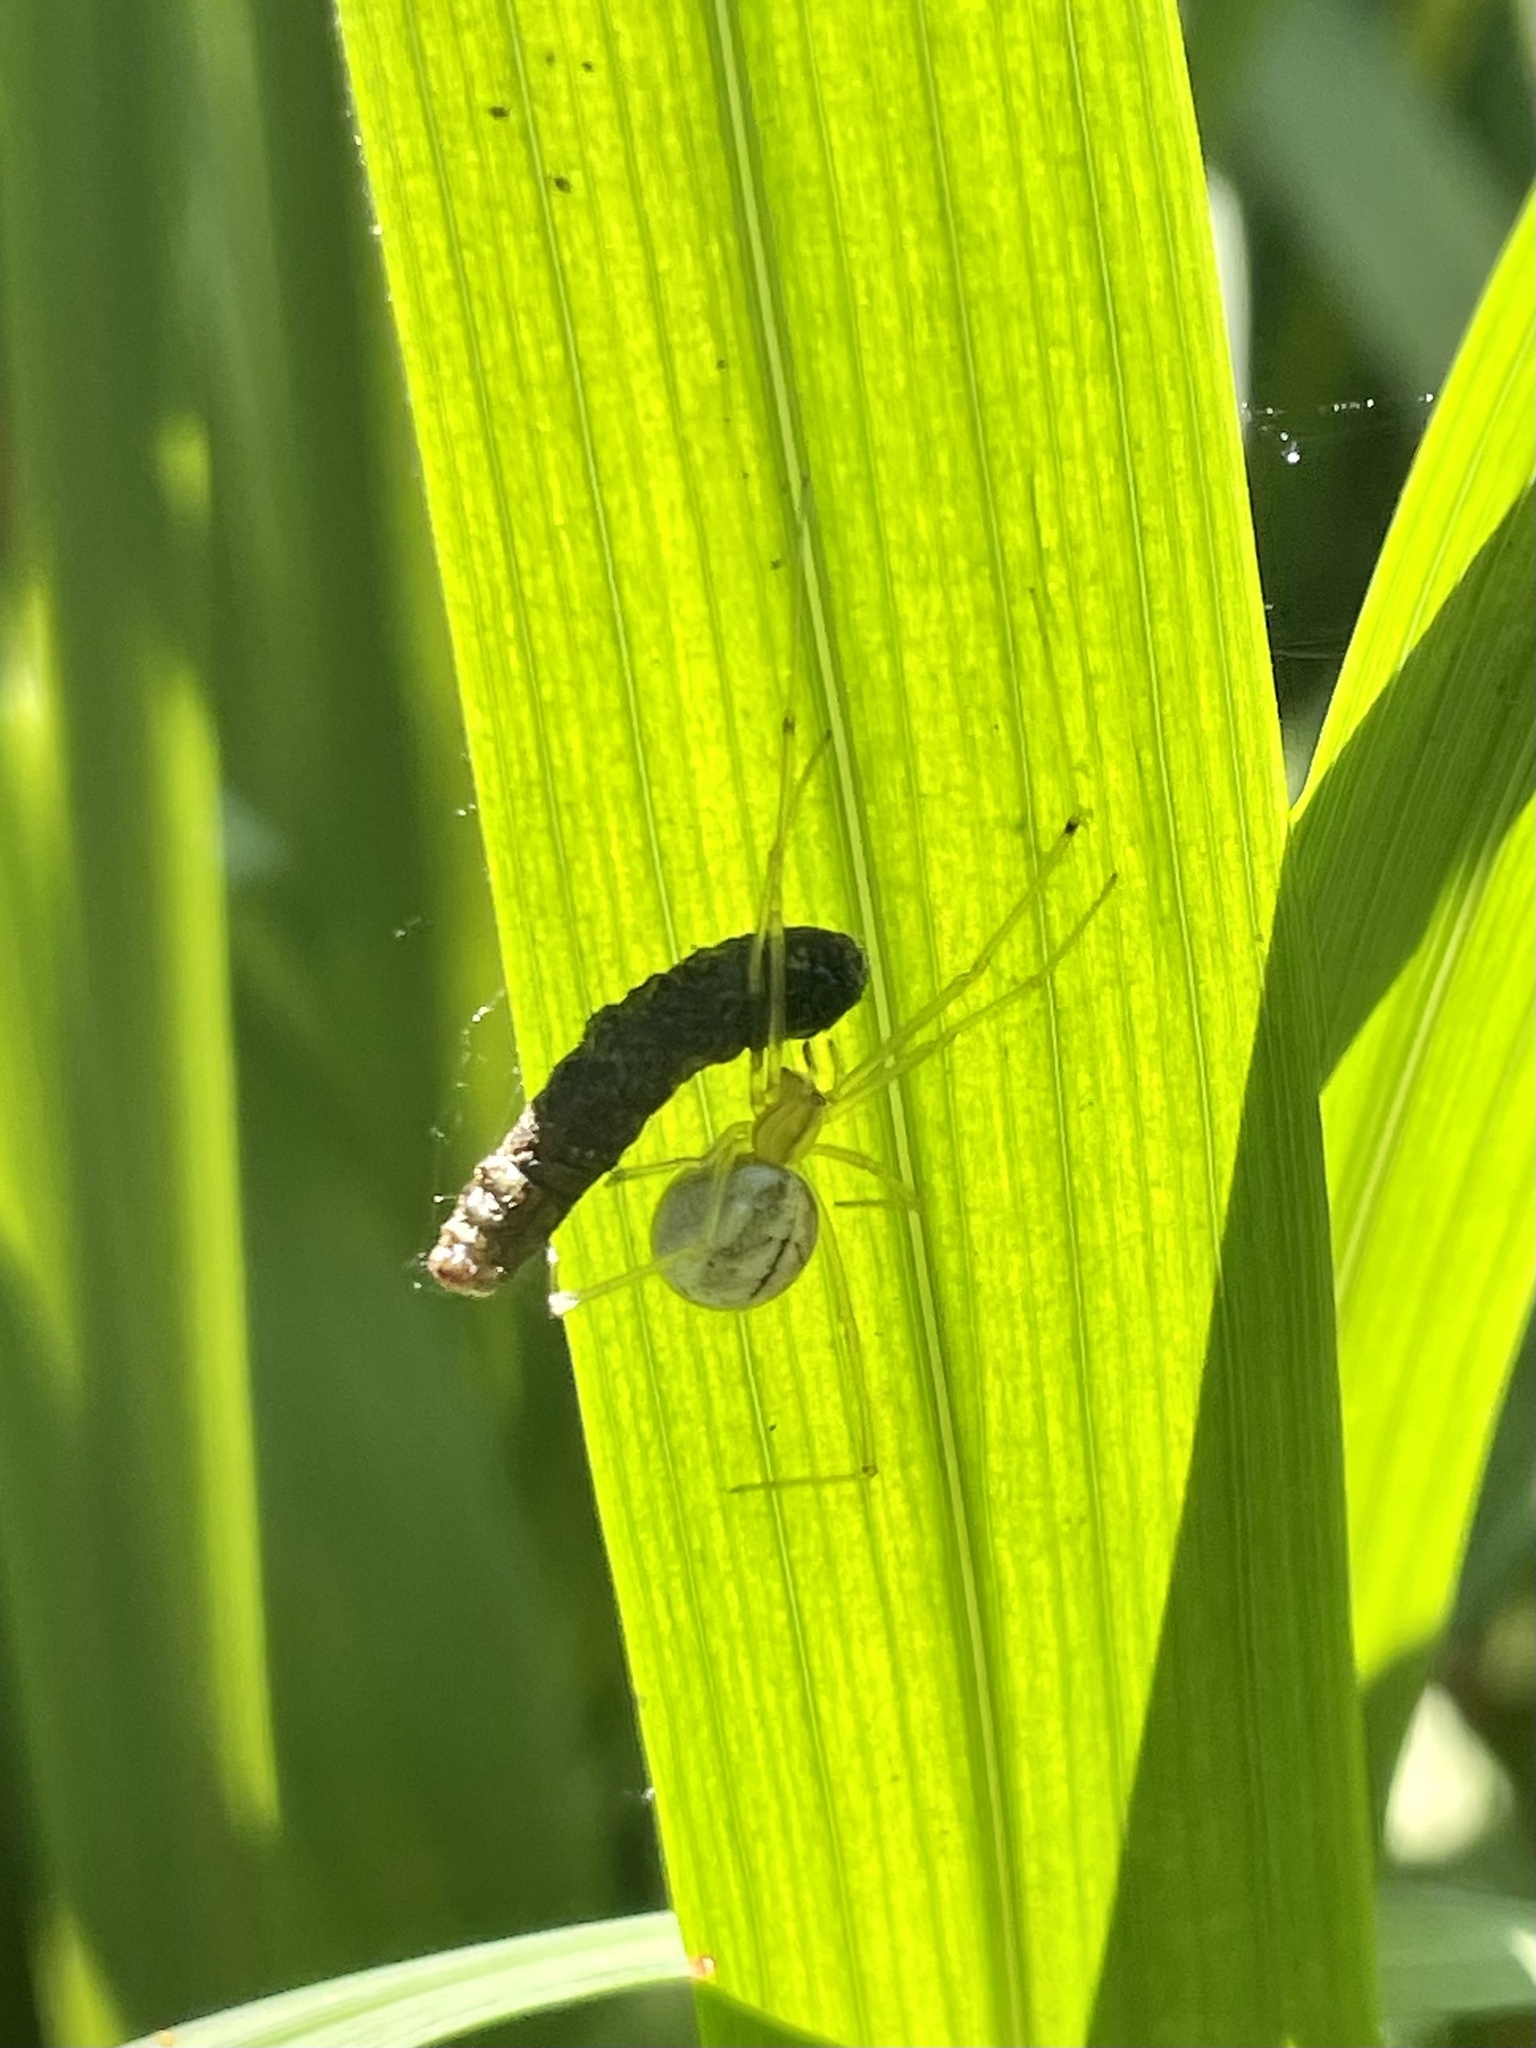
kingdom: Animalia
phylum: Arthropoda
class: Arachnida
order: Araneae
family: Theridiidae
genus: Enoplognatha
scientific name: Enoplognatha ovata
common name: Common candy-striped spider
